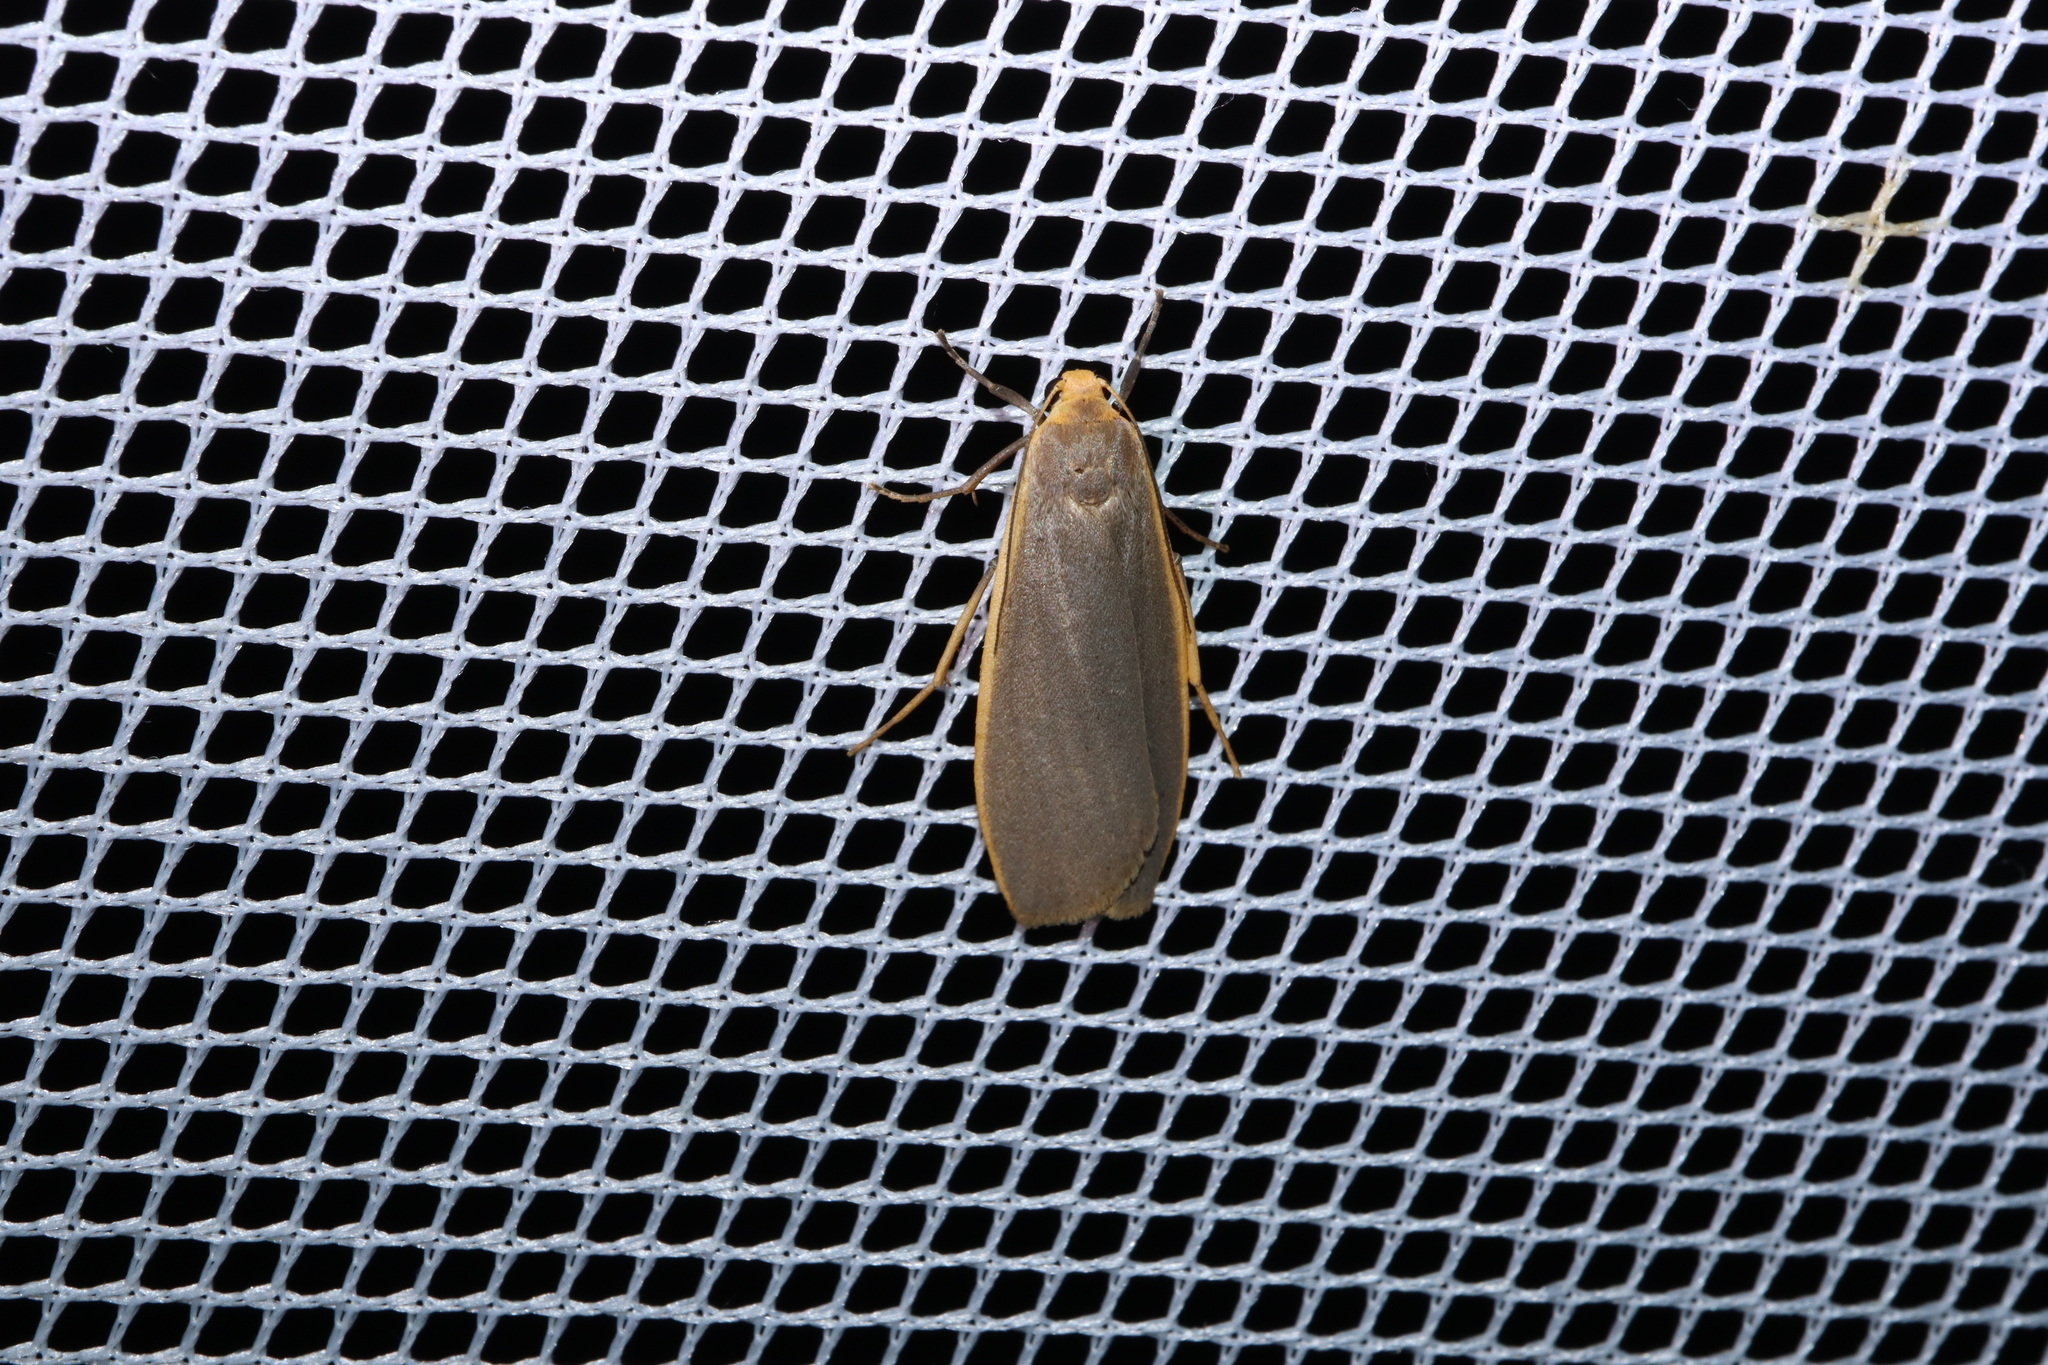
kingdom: Animalia
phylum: Arthropoda
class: Insecta
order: Lepidoptera
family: Erebidae
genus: Eilema
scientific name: Eilema plana
